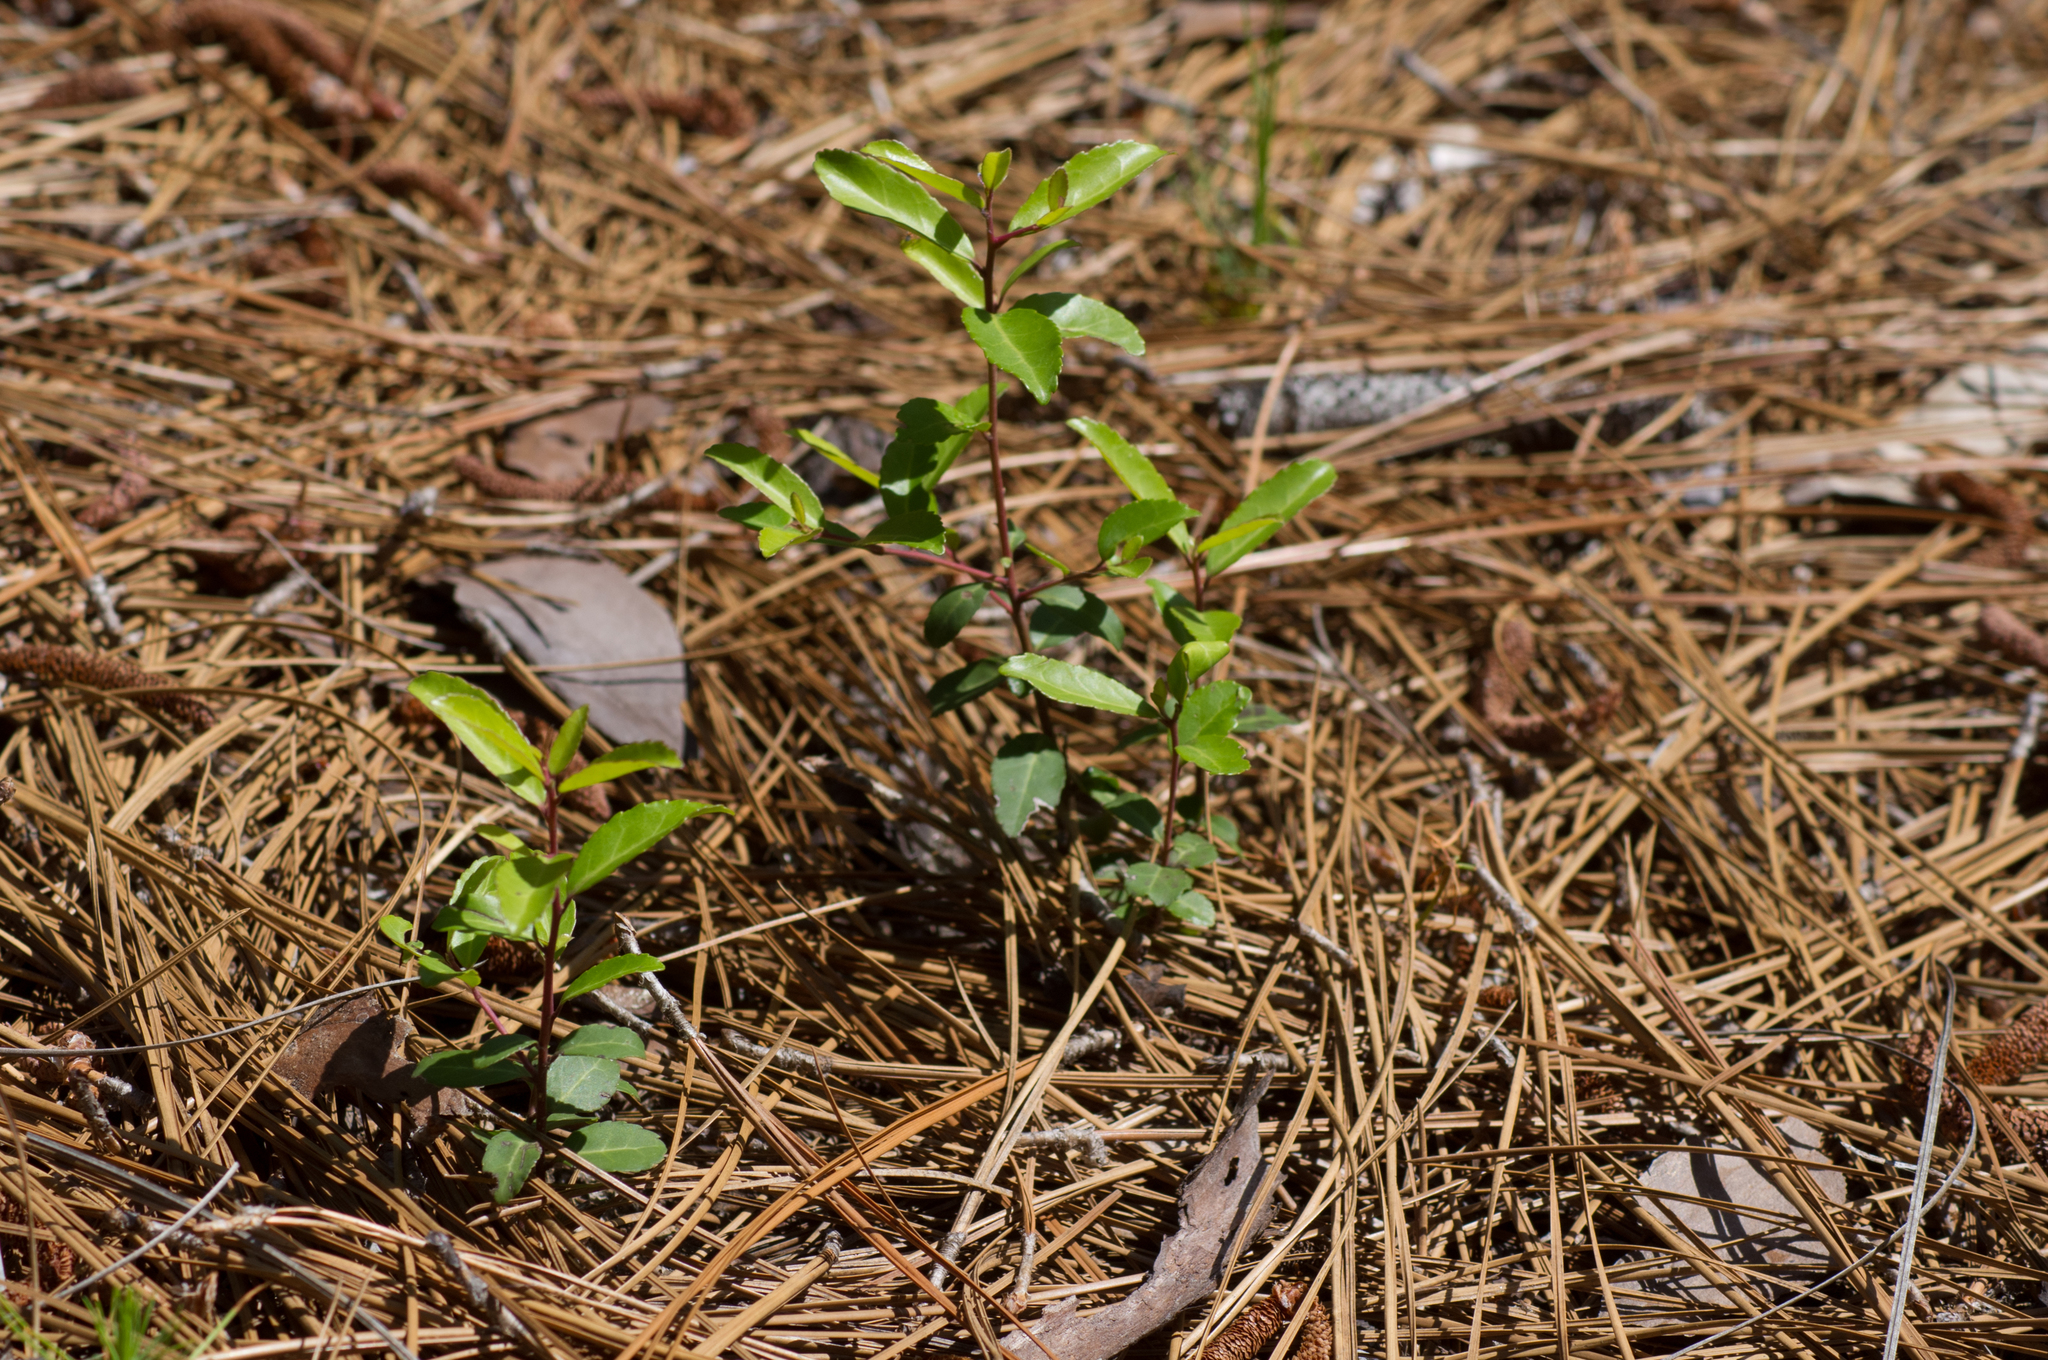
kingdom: Plantae
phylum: Tracheophyta
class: Magnoliopsida
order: Aquifoliales
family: Aquifoliaceae
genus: Ilex
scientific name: Ilex vomitoria
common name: Yaupon holly
